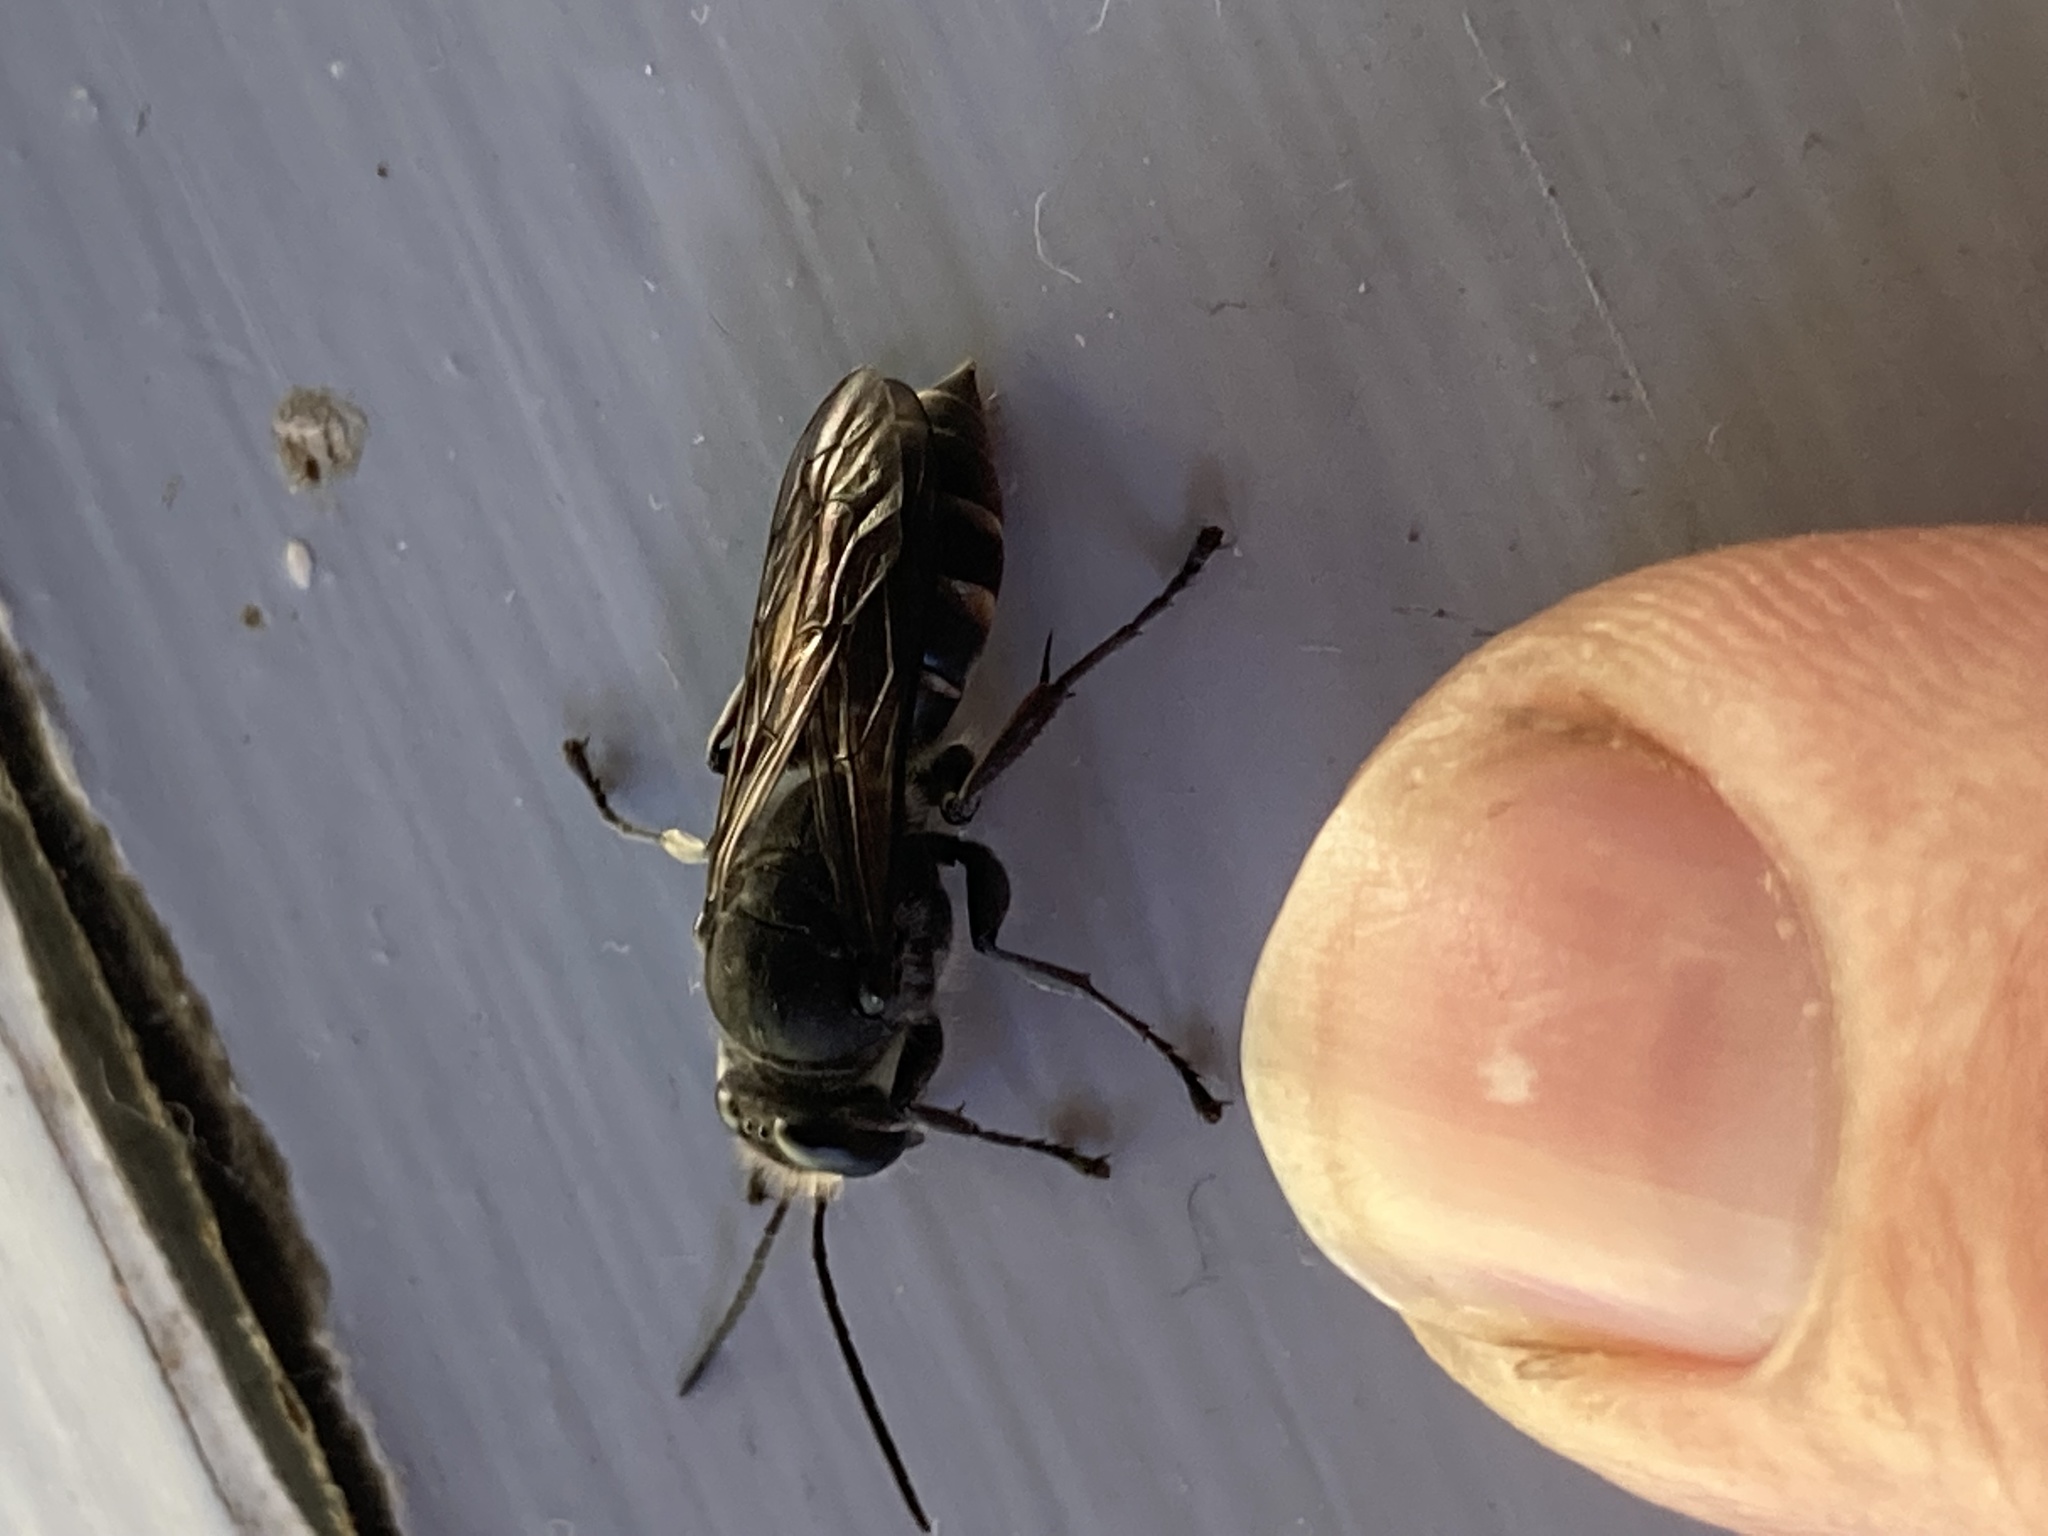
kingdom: Animalia
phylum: Arthropoda
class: Insecta
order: Hymenoptera
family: Crabronidae
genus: Pison
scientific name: Pison spinolae
